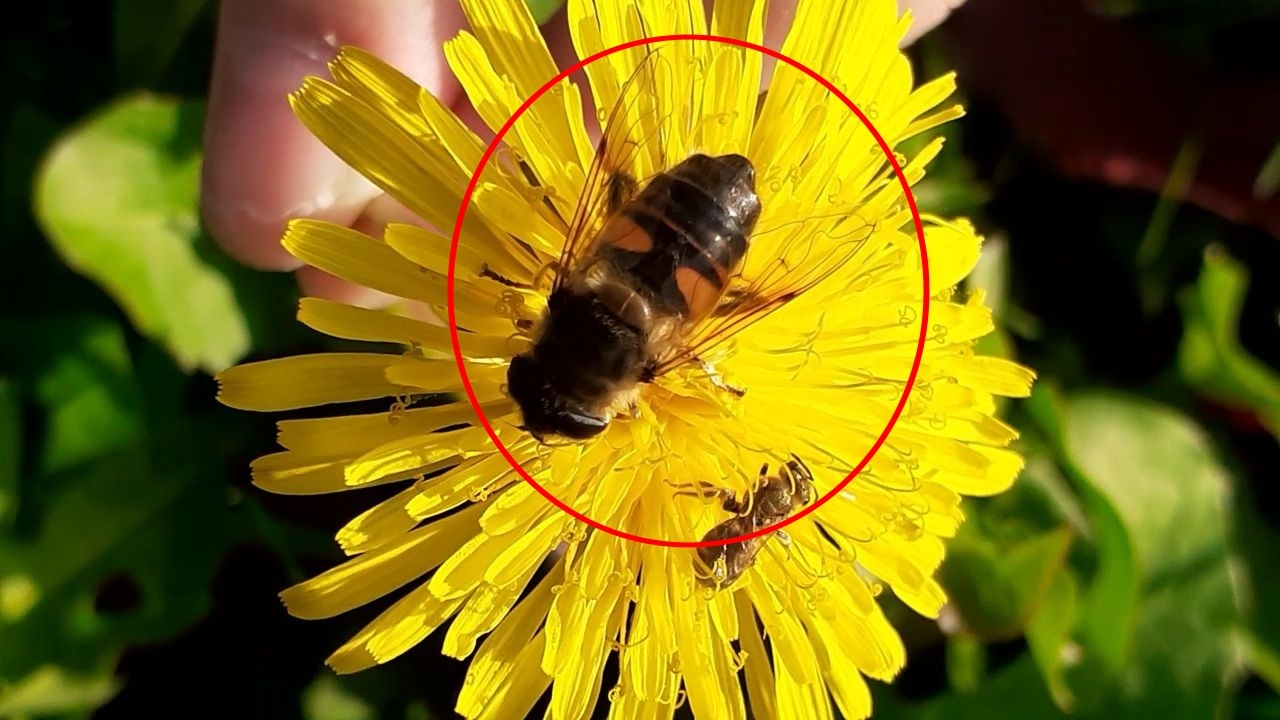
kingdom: Animalia
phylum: Arthropoda
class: Insecta
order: Diptera
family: Syrphidae
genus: Eristalis
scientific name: Eristalis tenax
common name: Drone fly
